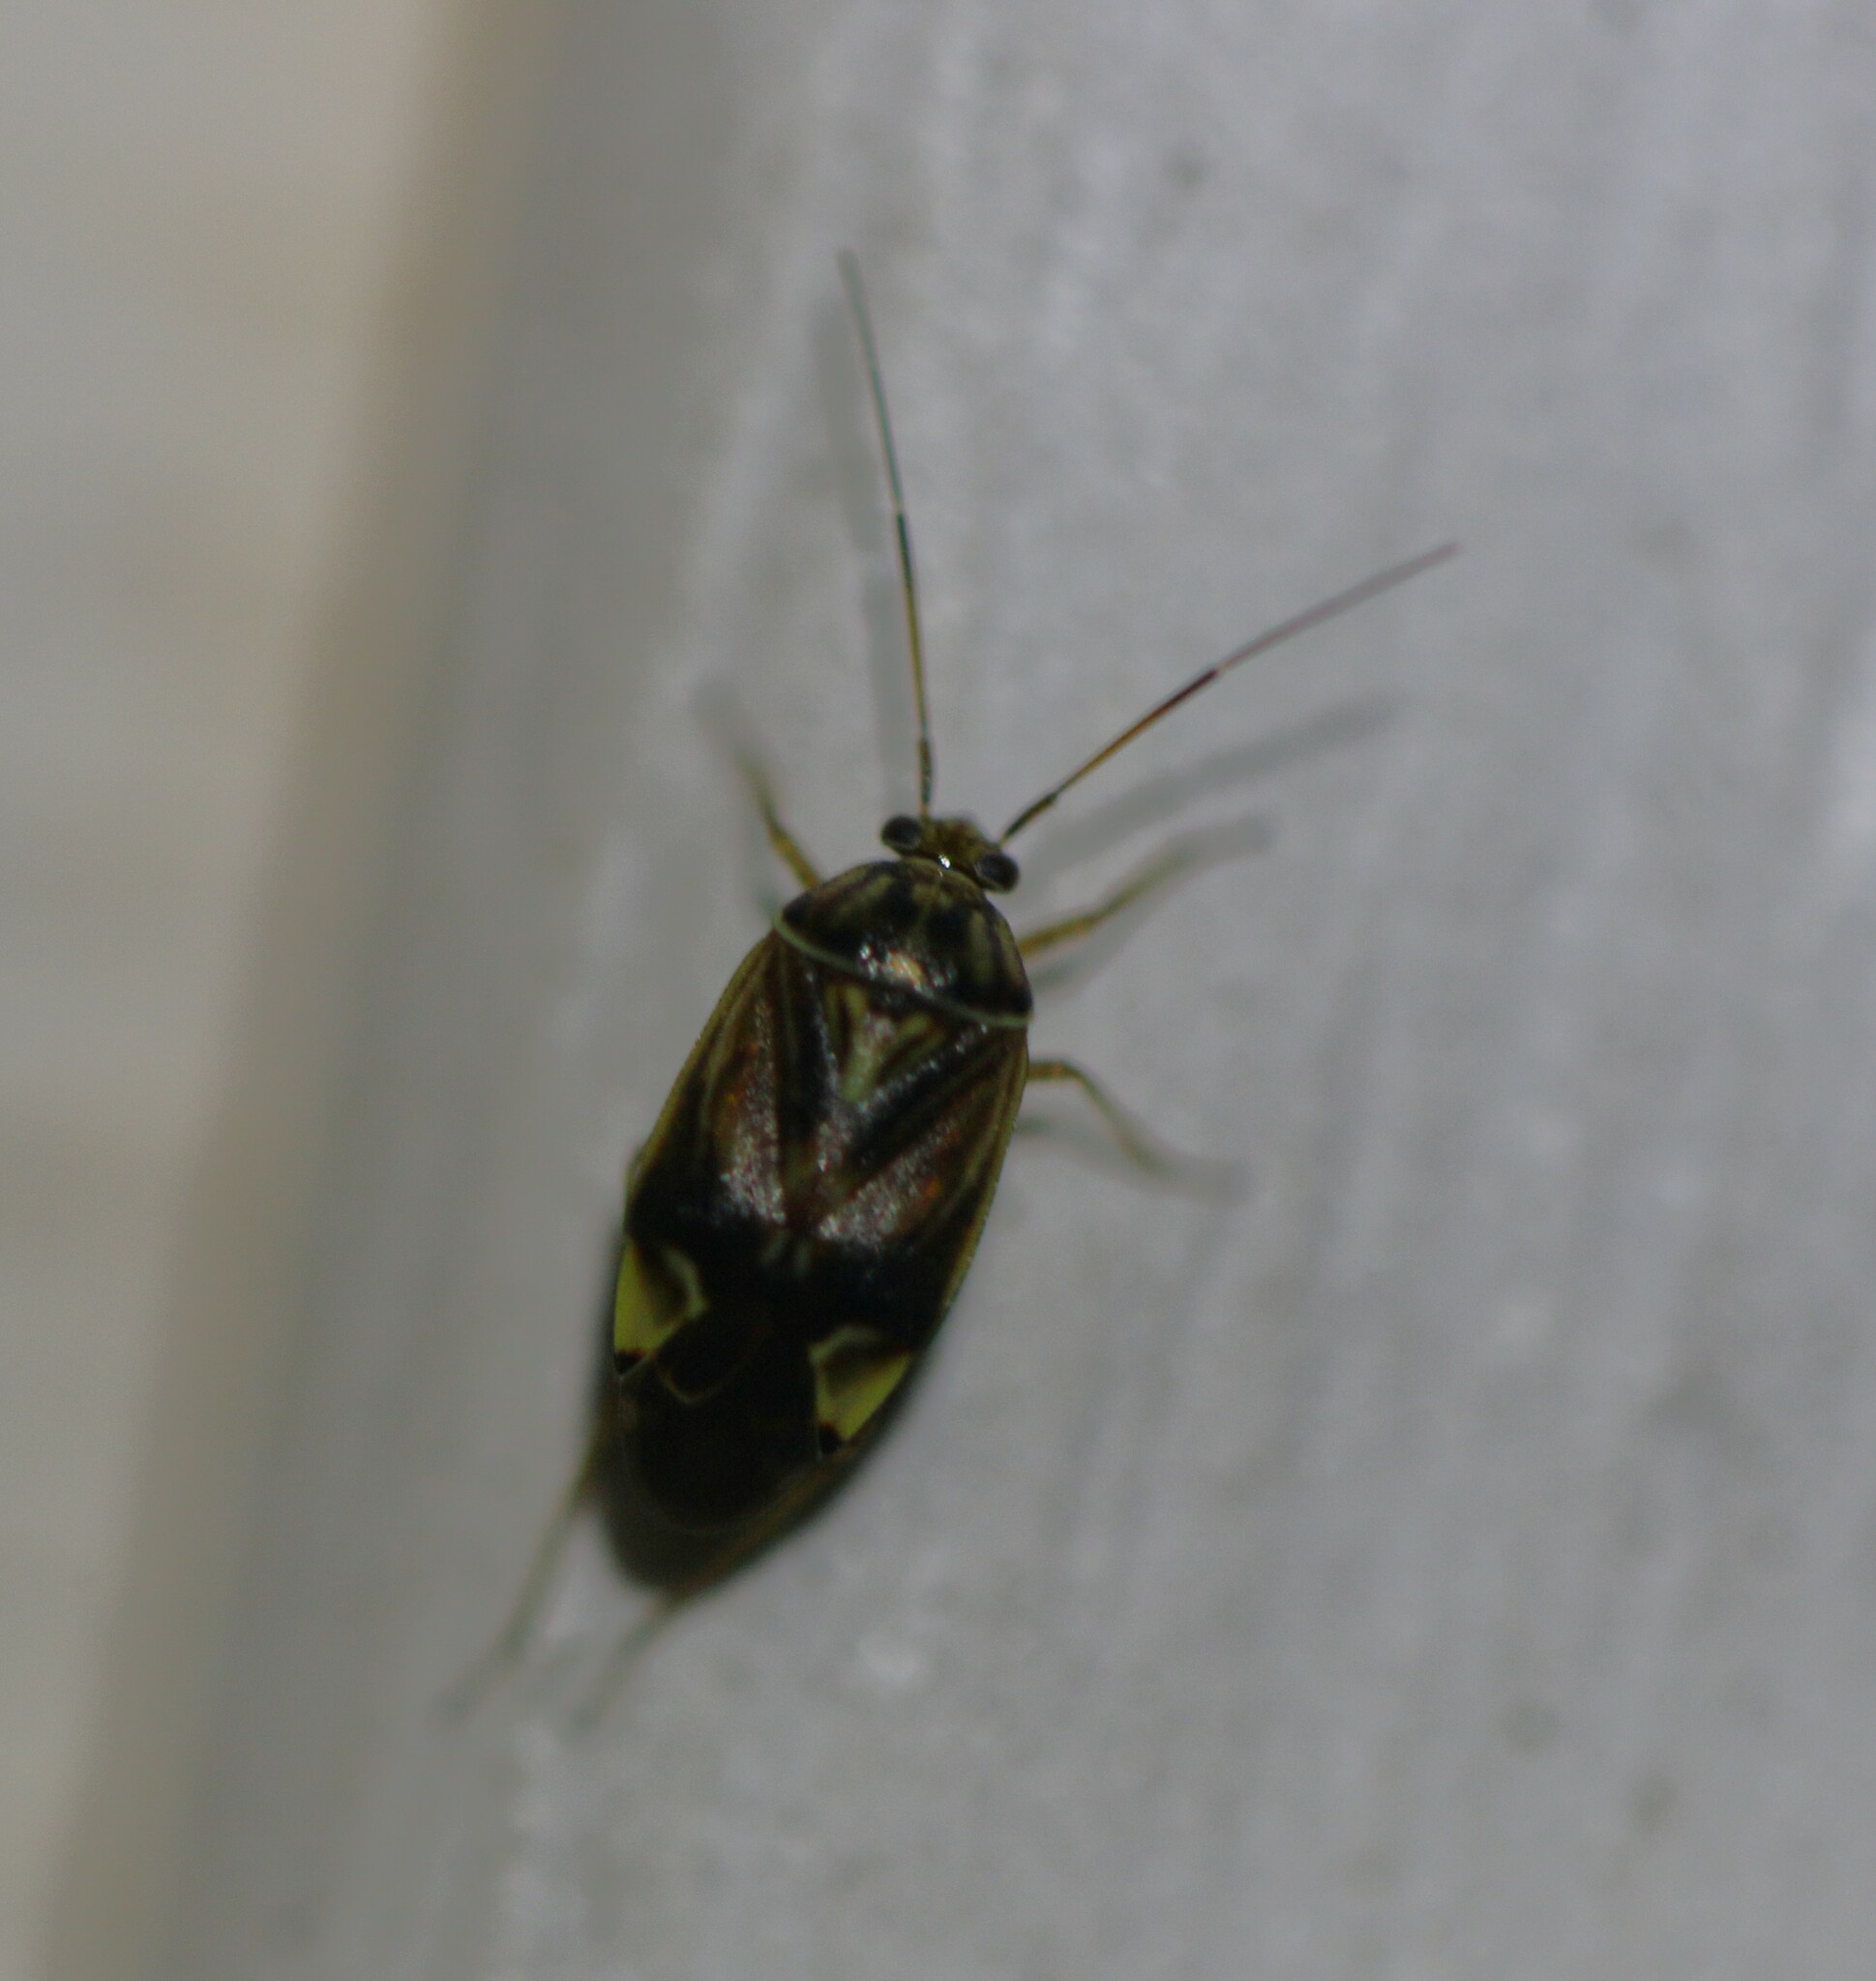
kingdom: Animalia
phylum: Arthropoda
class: Insecta
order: Hemiptera
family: Miridae
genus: Lygus
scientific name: Lygus lineolaris
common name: North american tarnished plant bug
